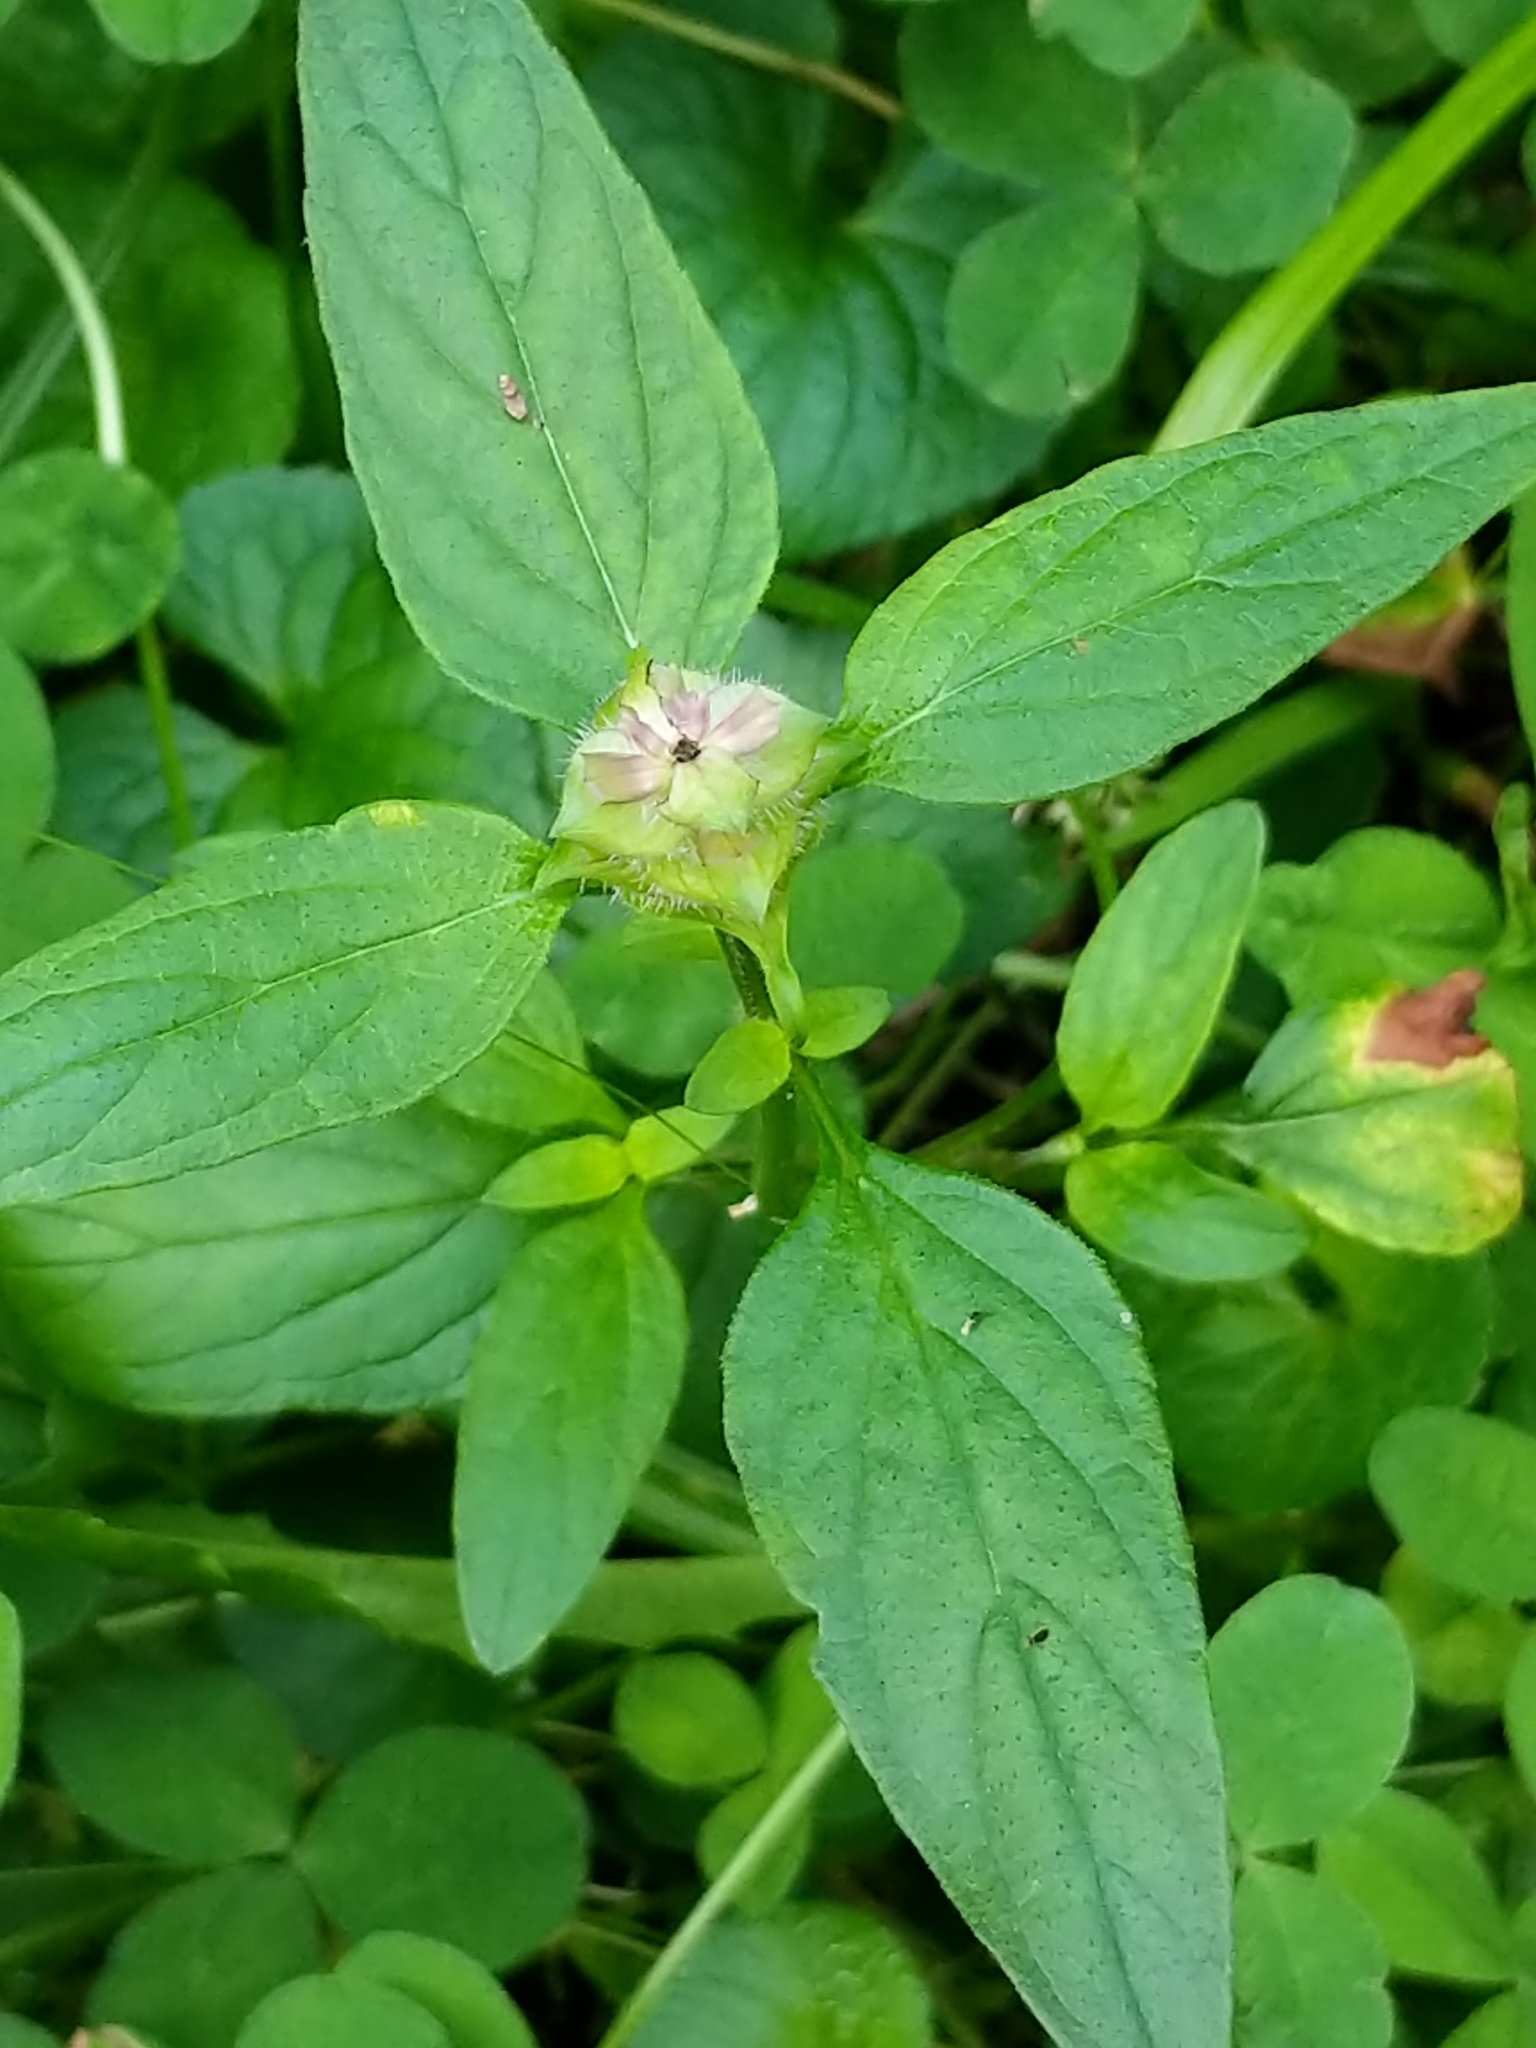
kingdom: Plantae
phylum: Tracheophyta
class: Magnoliopsida
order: Lamiales
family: Lamiaceae
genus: Prunella
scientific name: Prunella vulgaris
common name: Heal-all
